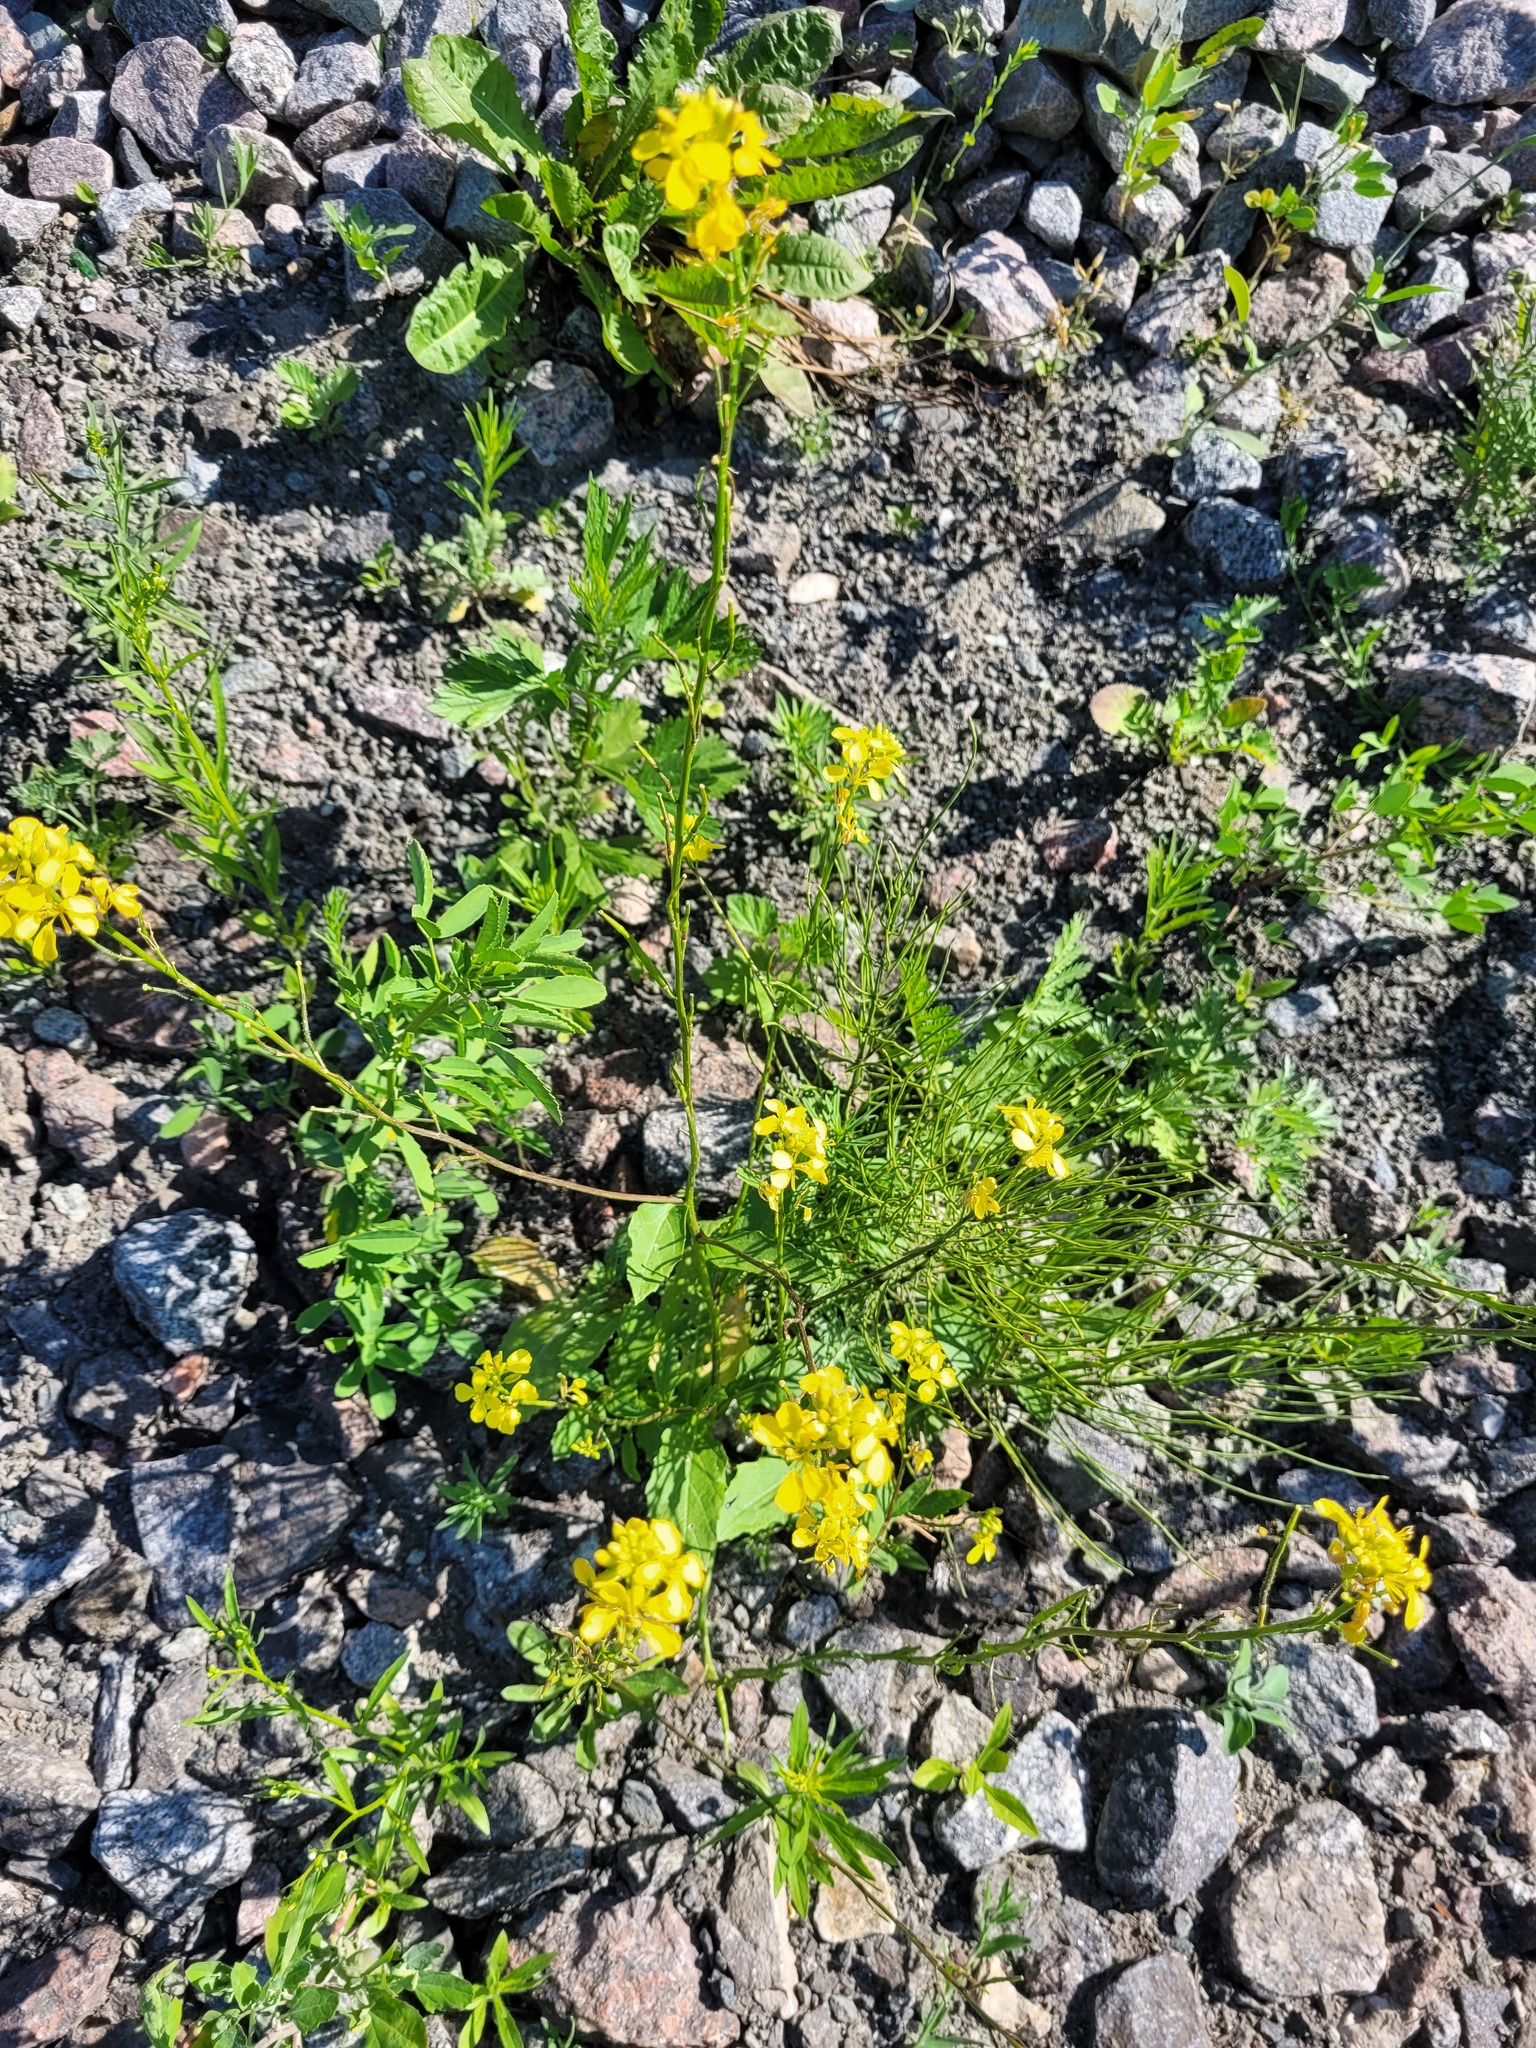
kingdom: Plantae
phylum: Tracheophyta
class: Magnoliopsida
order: Brassicales
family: Brassicaceae
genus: Sinapis
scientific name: Sinapis arvensis
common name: Charlock
